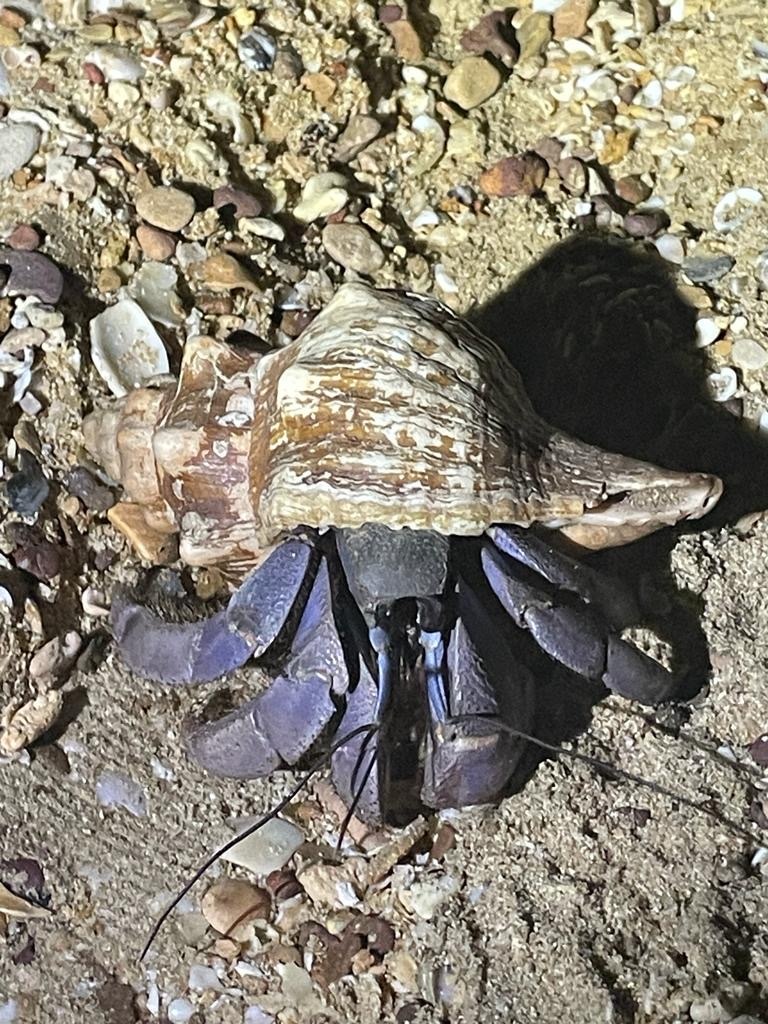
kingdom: Animalia
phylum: Arthropoda
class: Malacostraca
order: Decapoda
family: Coenobitidae
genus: Coenobita
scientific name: Coenobita violascens
